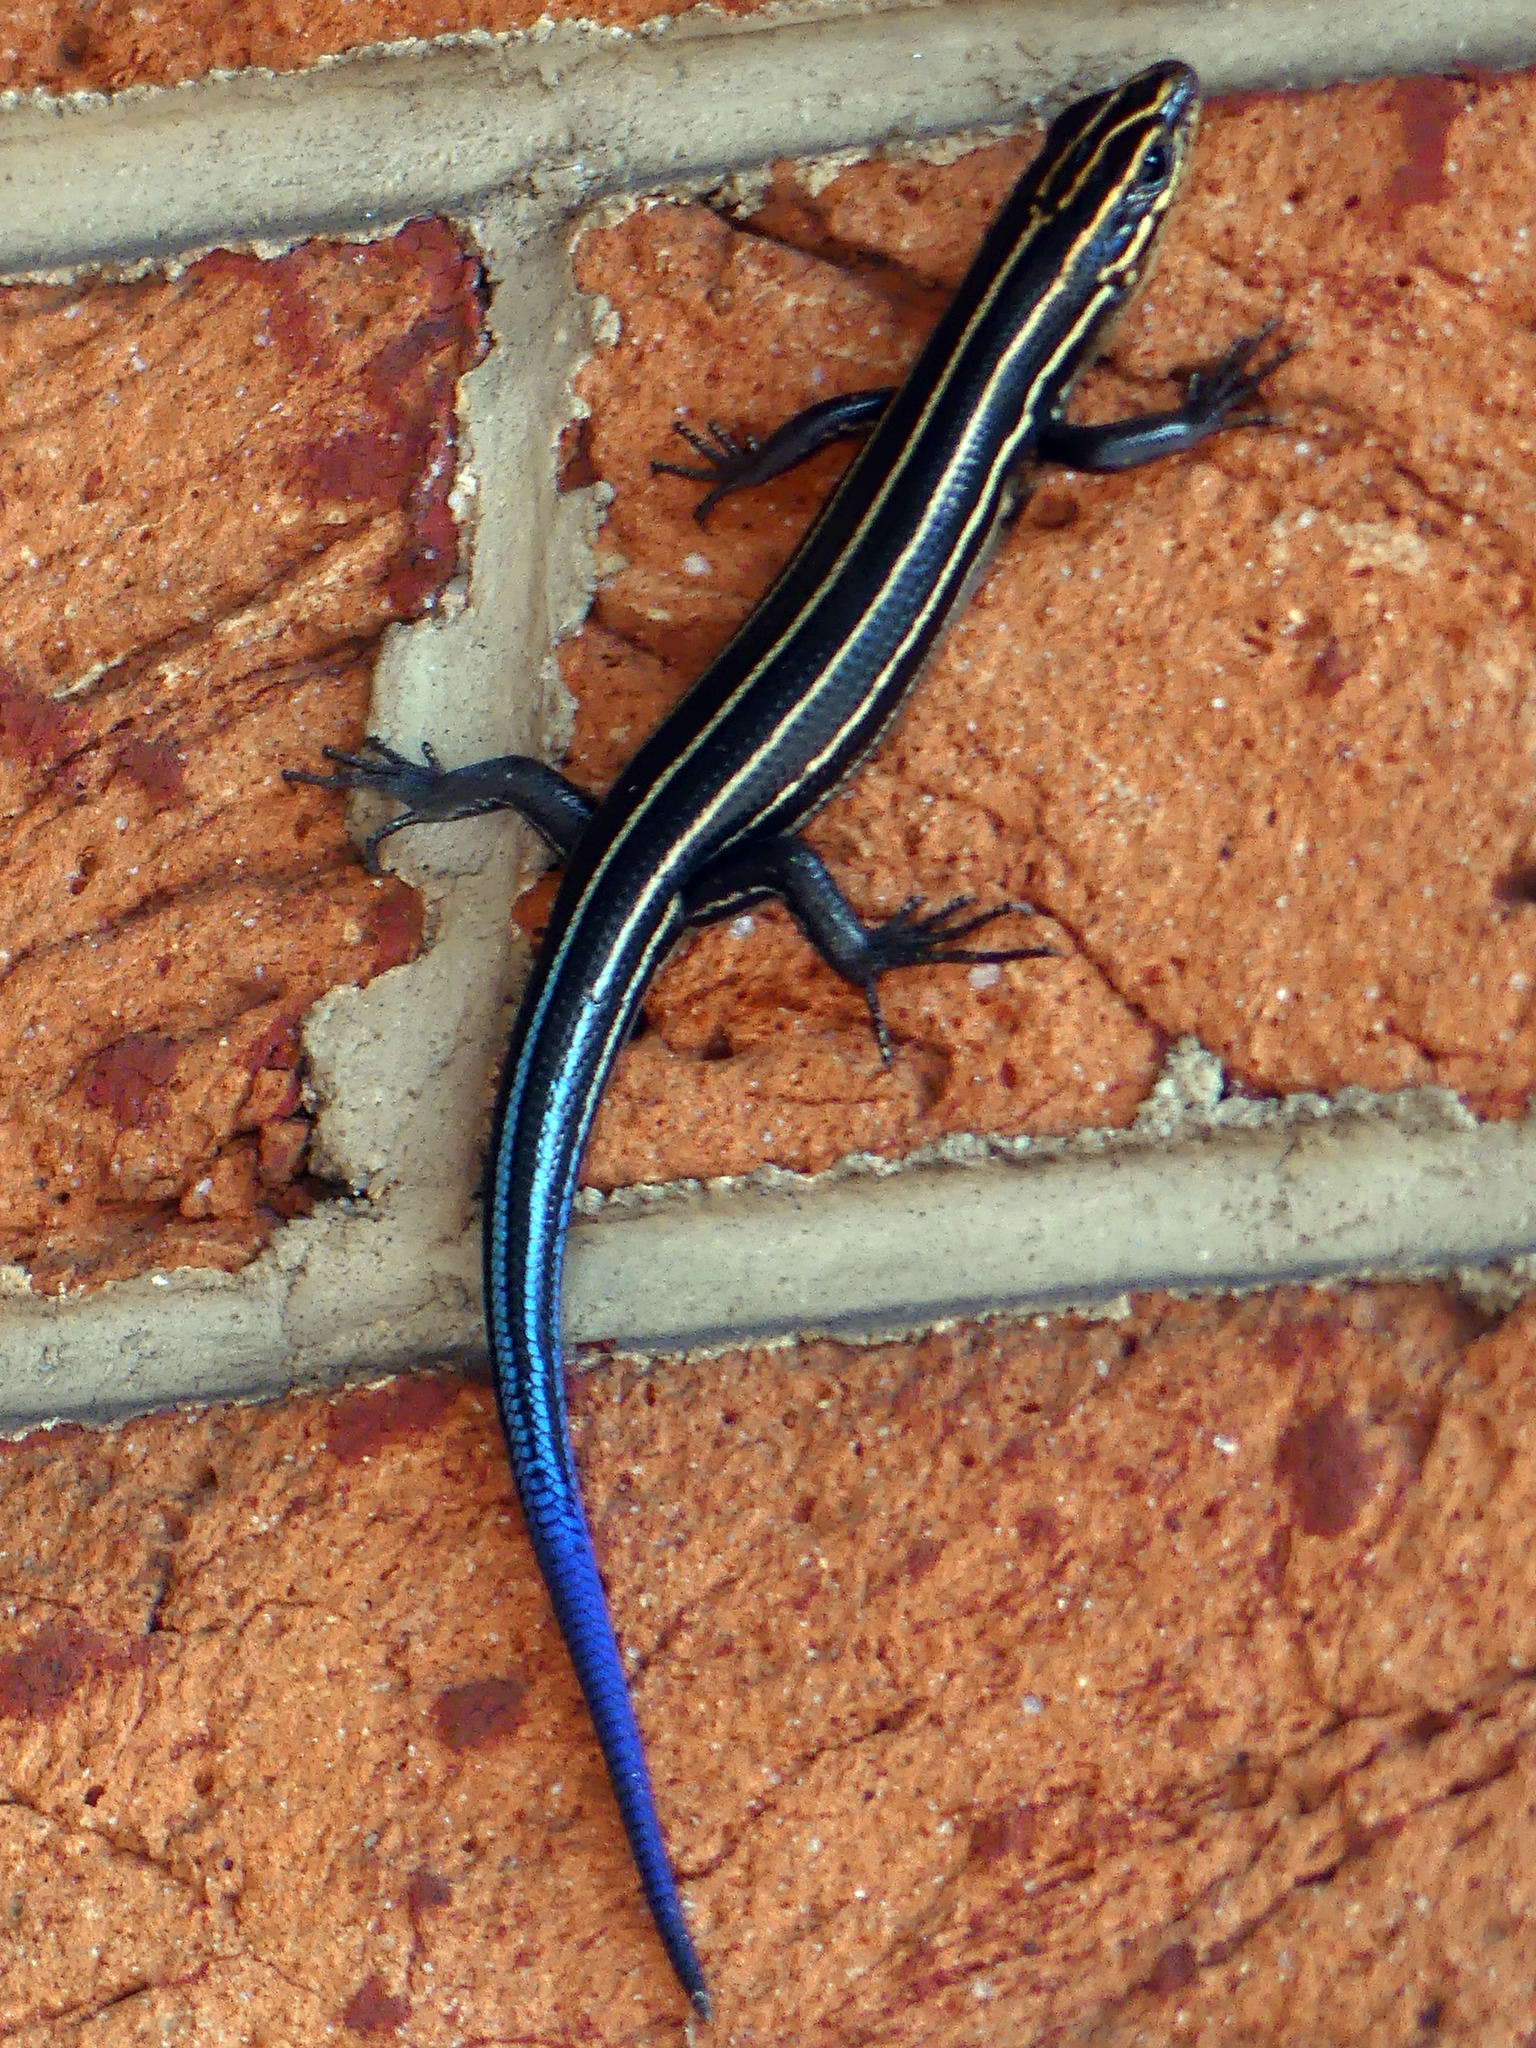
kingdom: Animalia
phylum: Chordata
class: Squamata
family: Scincidae
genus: Plestiodon
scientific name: Plestiodon laticeps
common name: Broadhead skink
